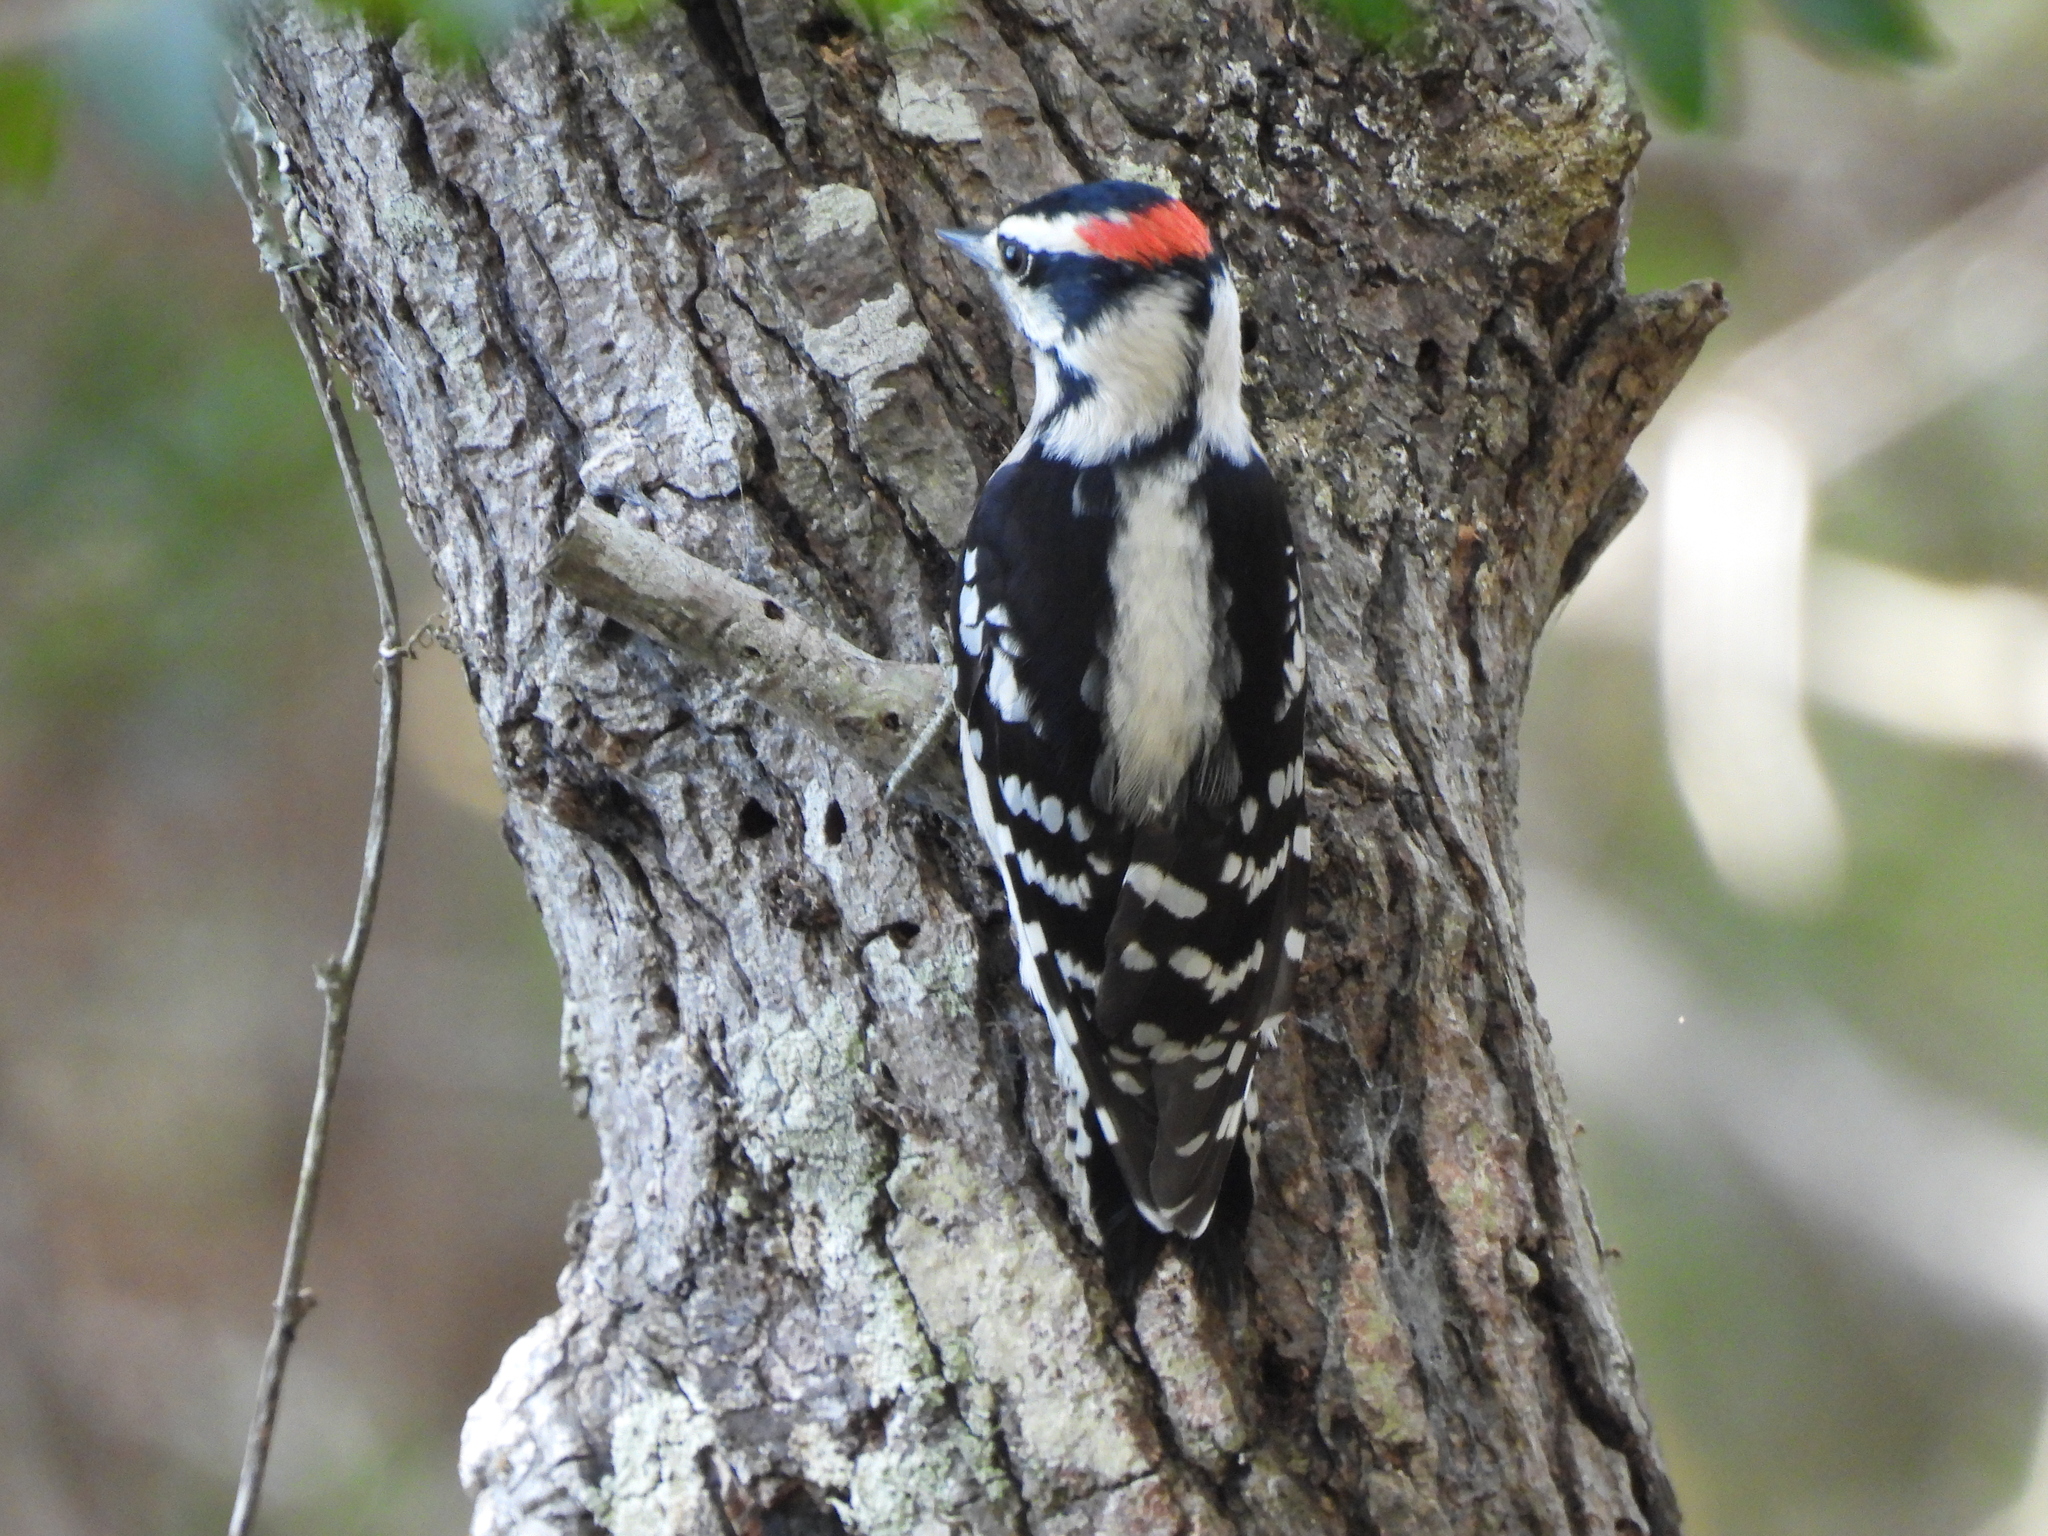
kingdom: Animalia
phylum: Chordata
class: Aves
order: Piciformes
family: Picidae
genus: Dryobates
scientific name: Dryobates pubescens
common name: Downy woodpecker
